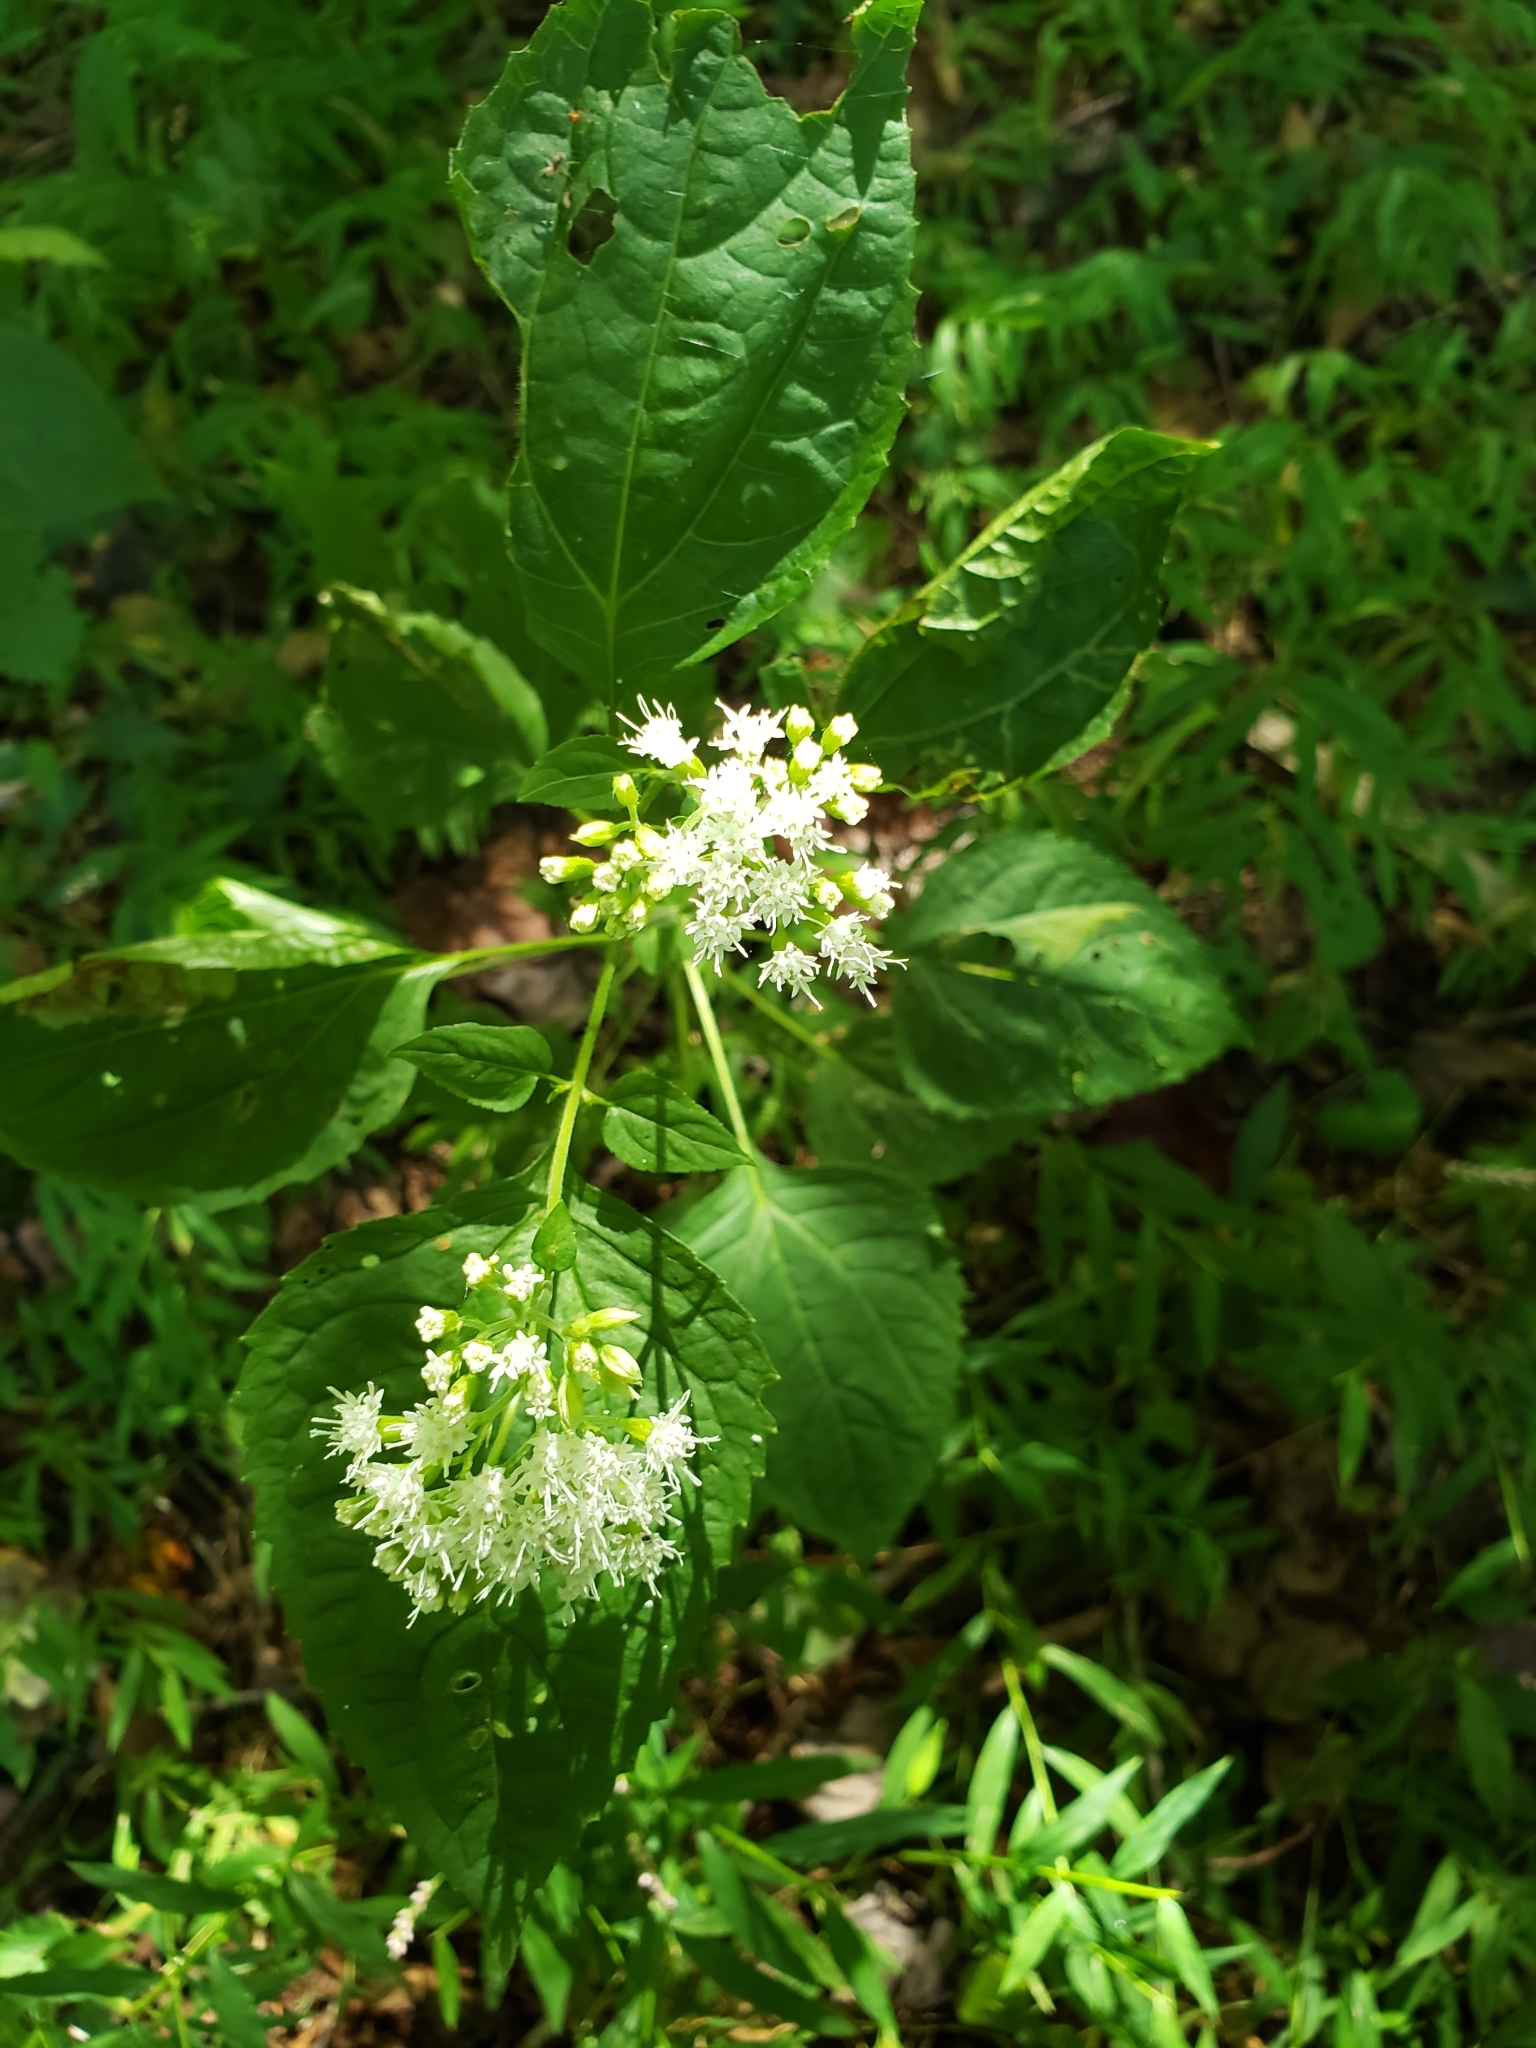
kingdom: Plantae
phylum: Tracheophyta
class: Magnoliopsida
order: Asterales
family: Asteraceae
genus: Ageratina
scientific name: Ageratina altissima
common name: White snakeroot
